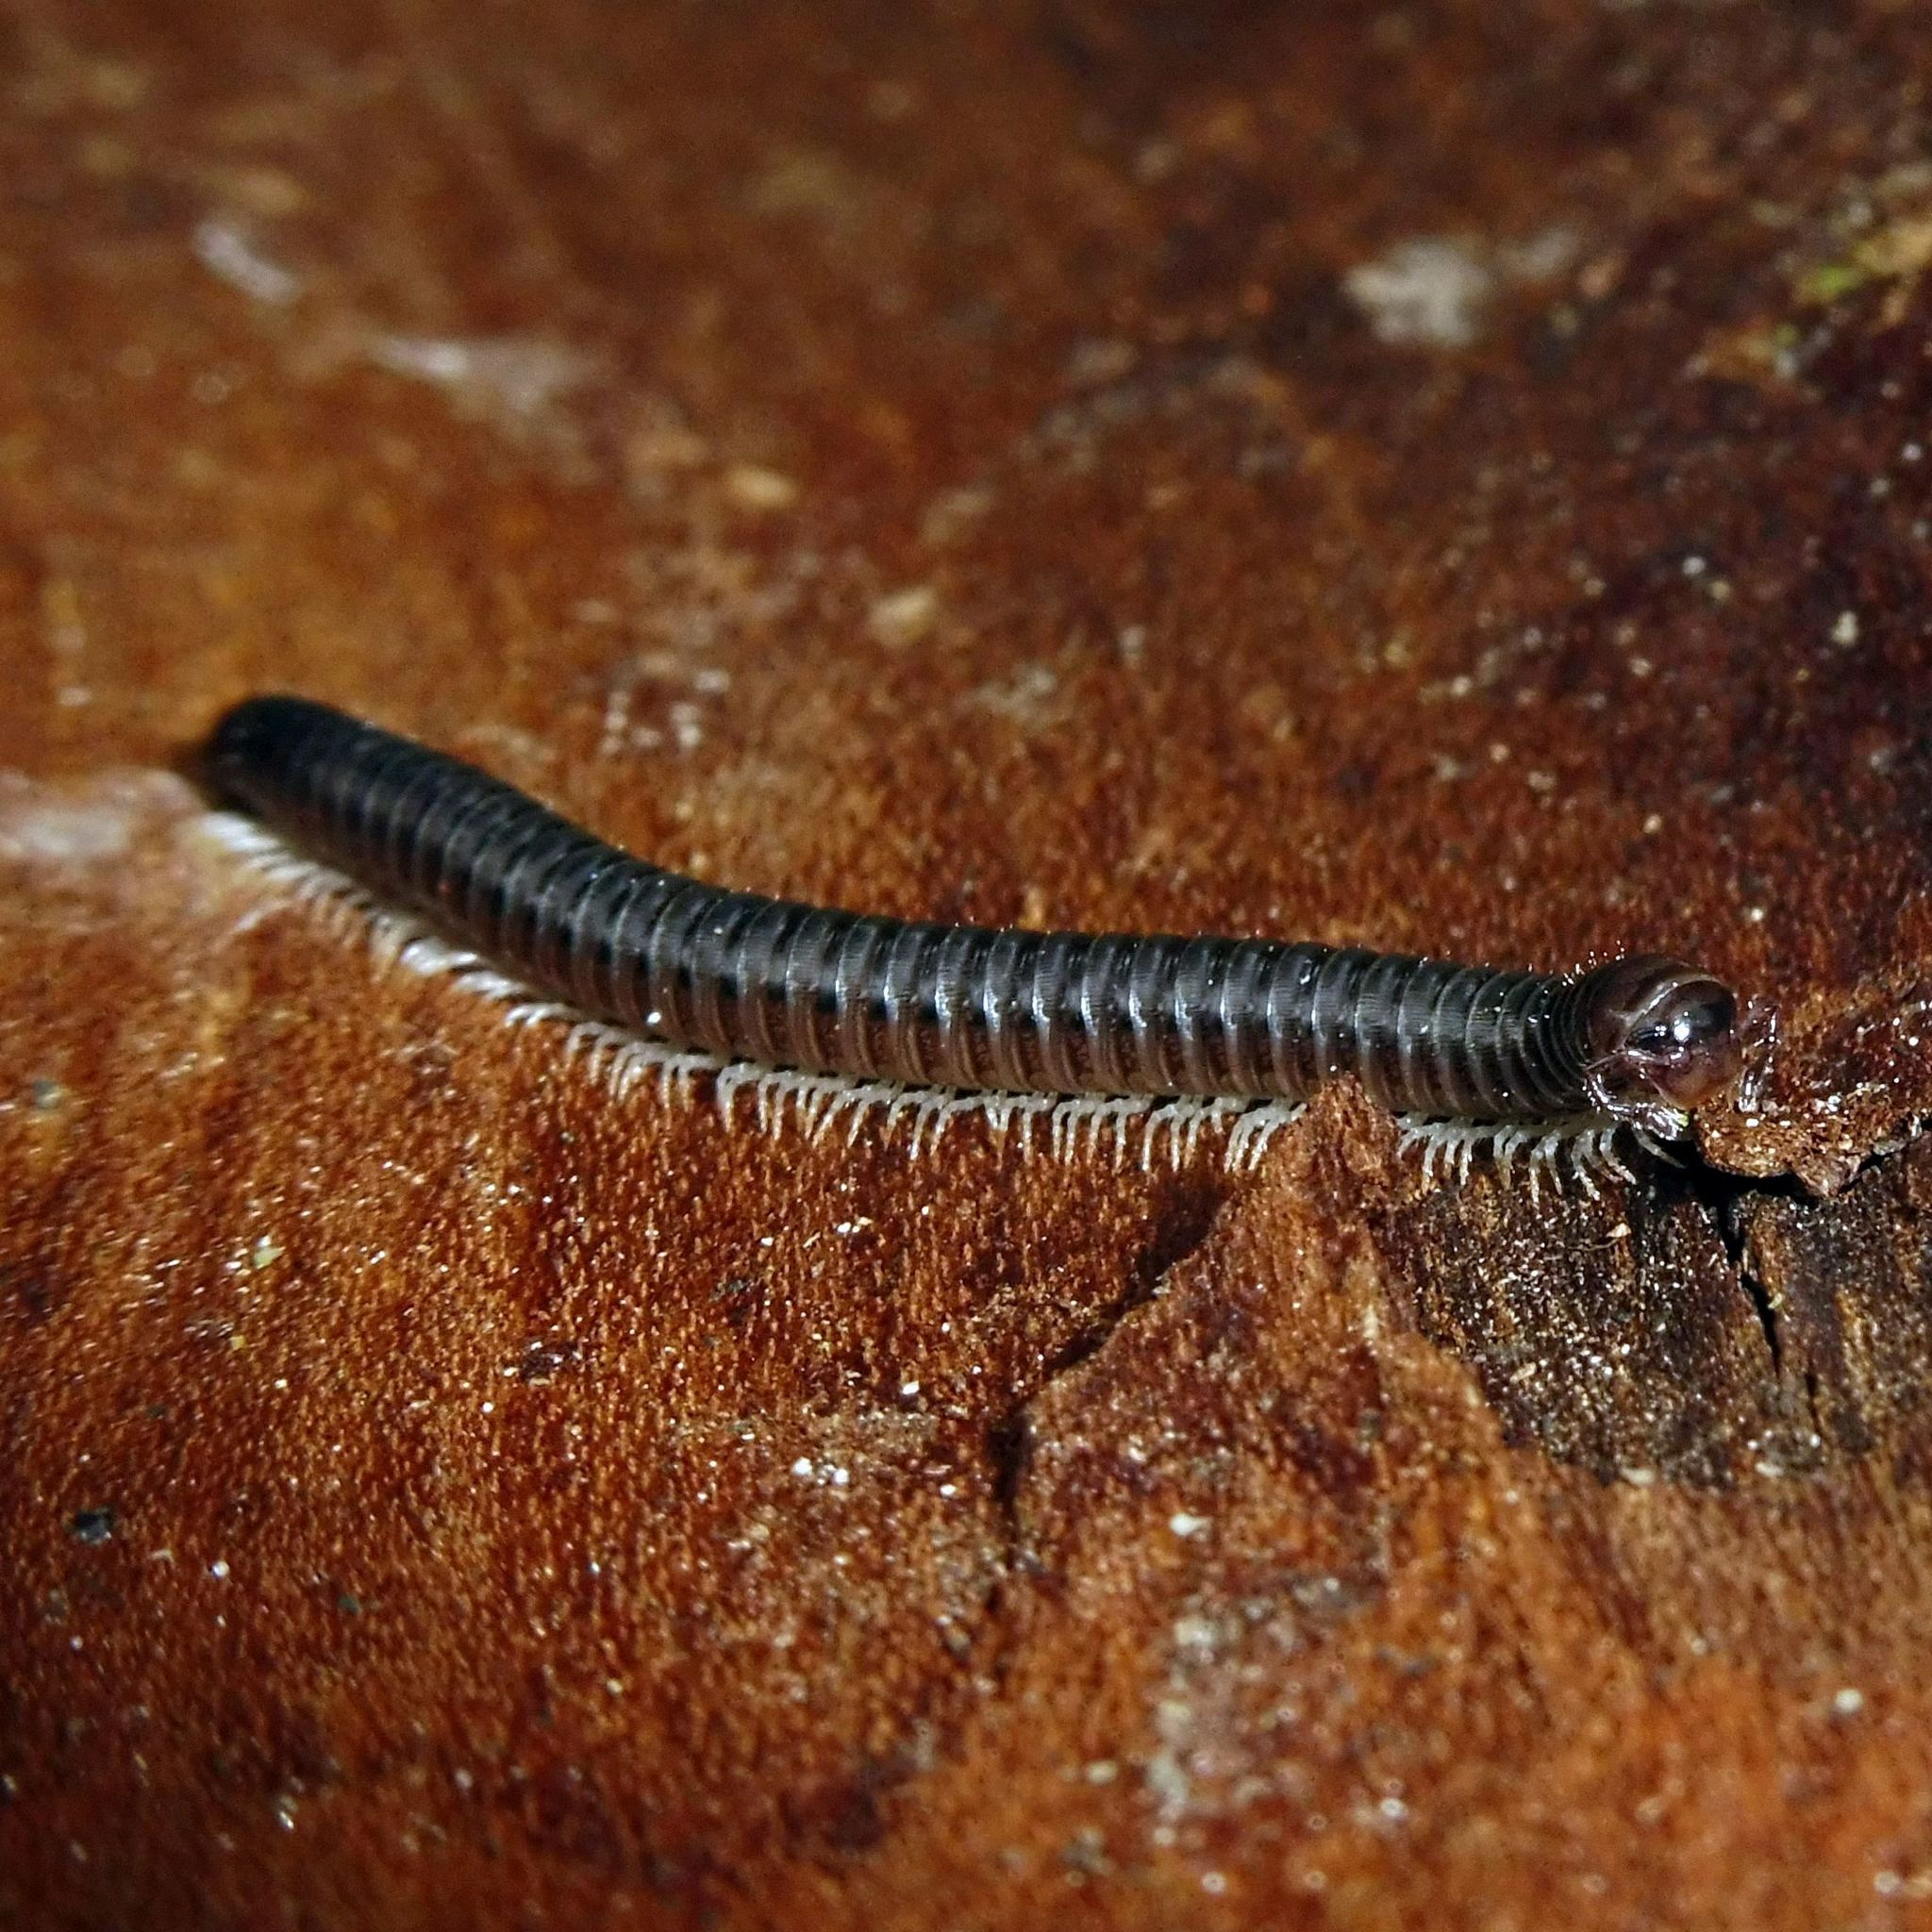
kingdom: Animalia
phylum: Arthropoda
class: Diplopoda
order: Julida
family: Julidae
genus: Tachypodoiulus
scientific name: Tachypodoiulus niger
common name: White-legged snake millipede
